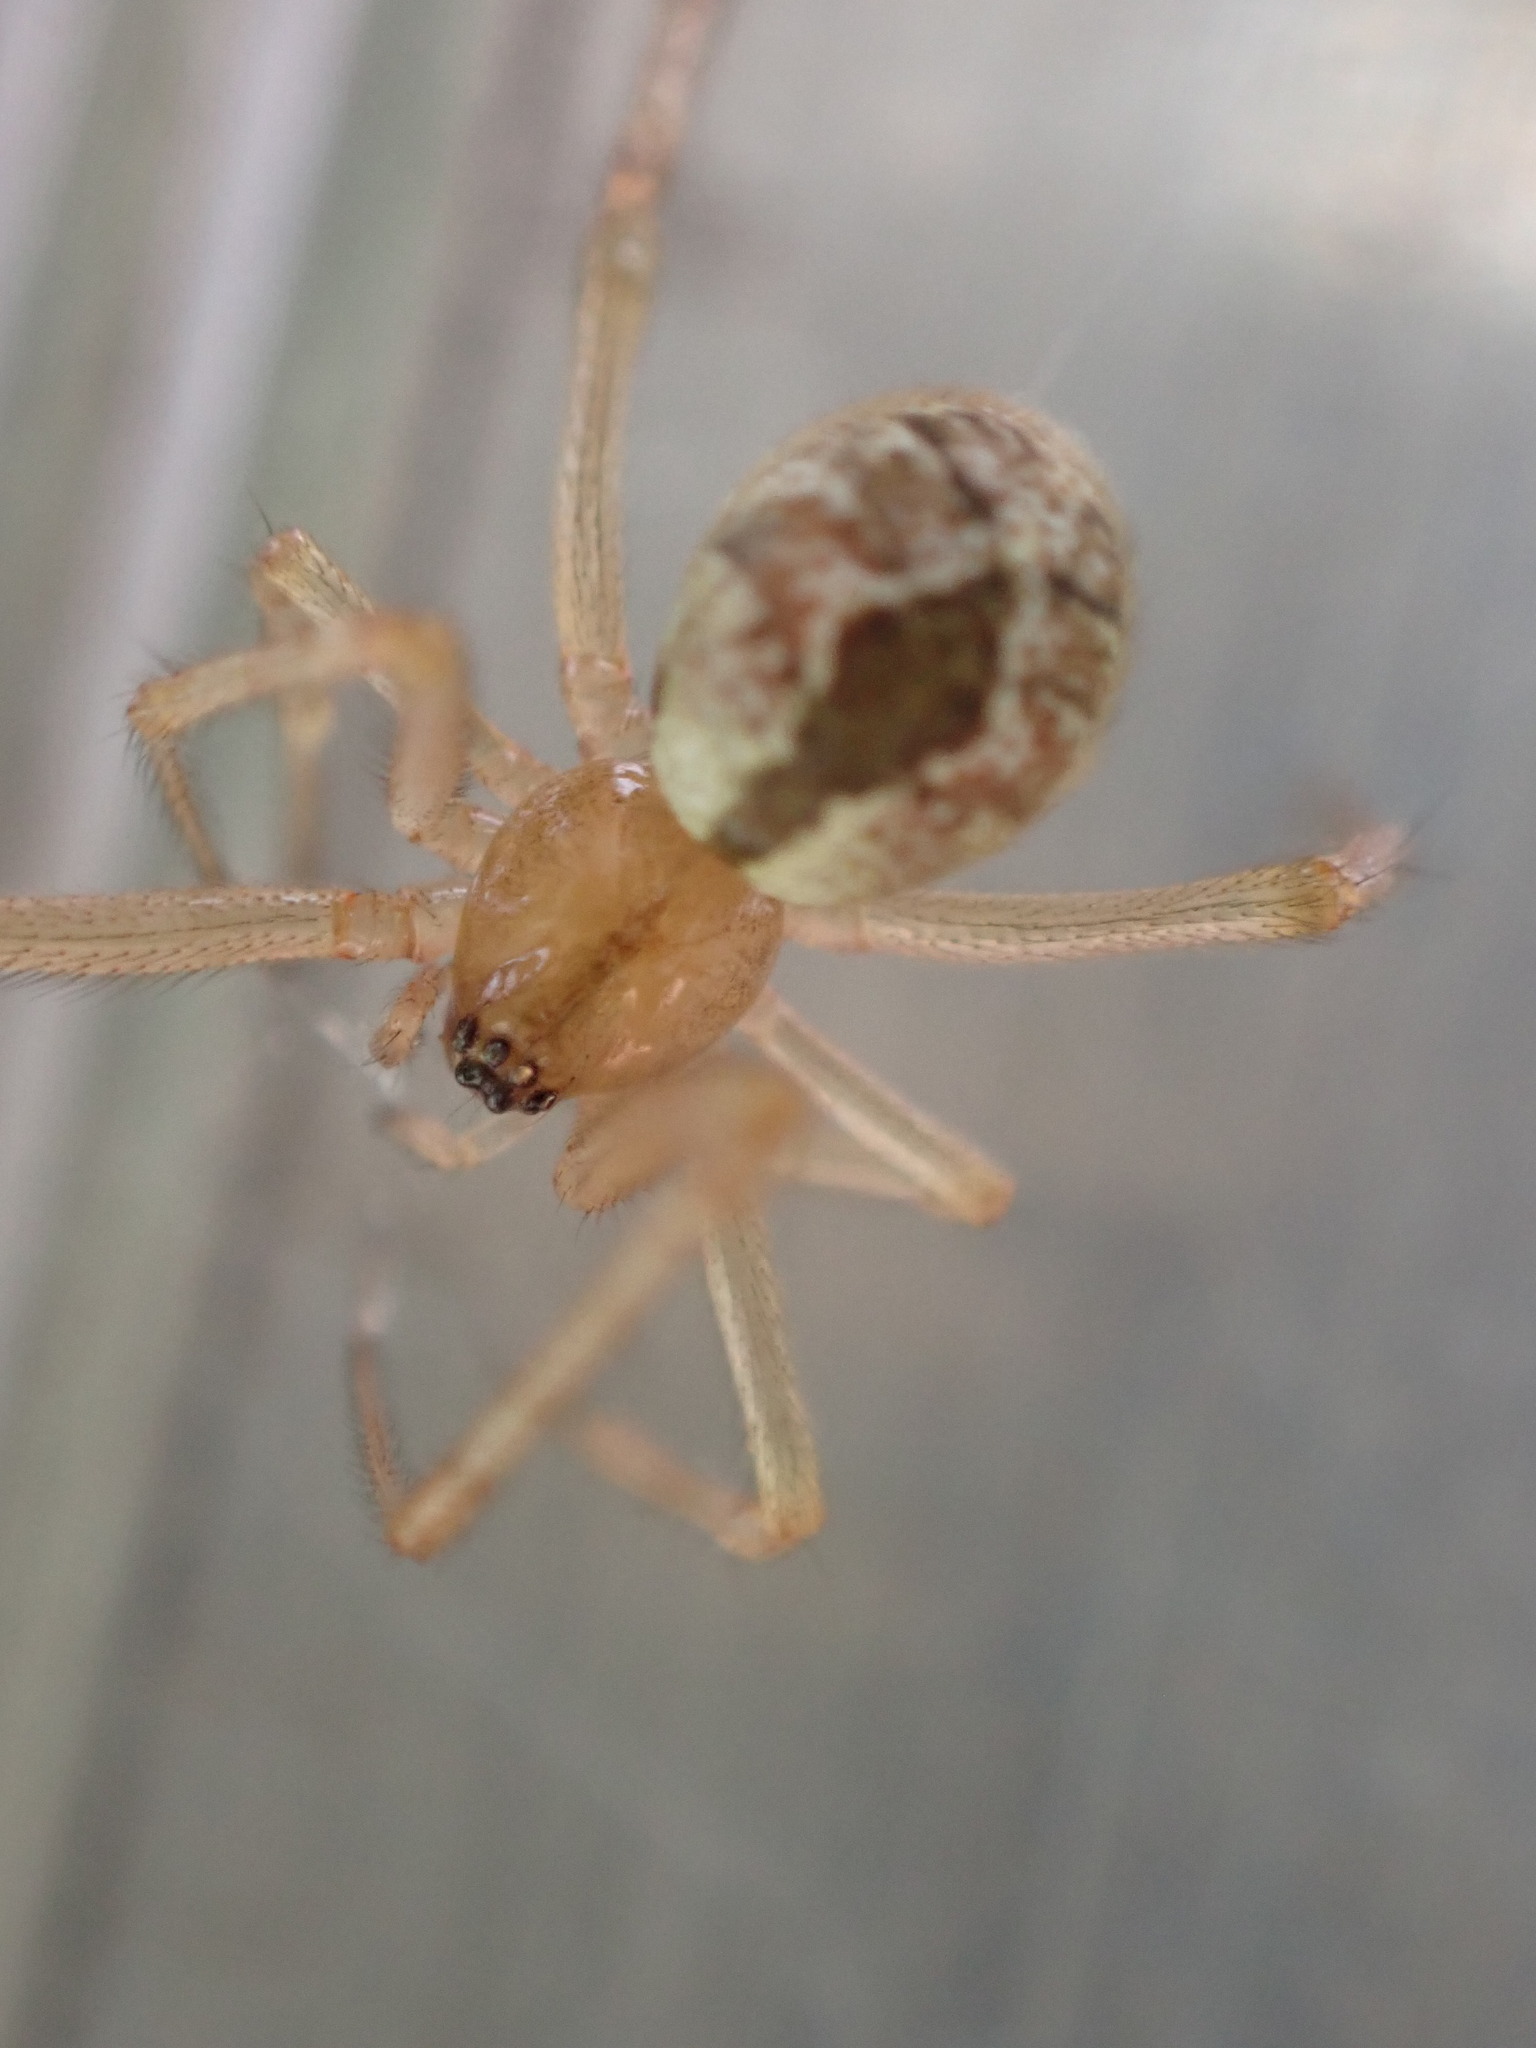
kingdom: Animalia
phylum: Arthropoda
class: Arachnida
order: Araneae
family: Theridiidae
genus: Cryptachaea
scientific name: Cryptachaea veruculata
